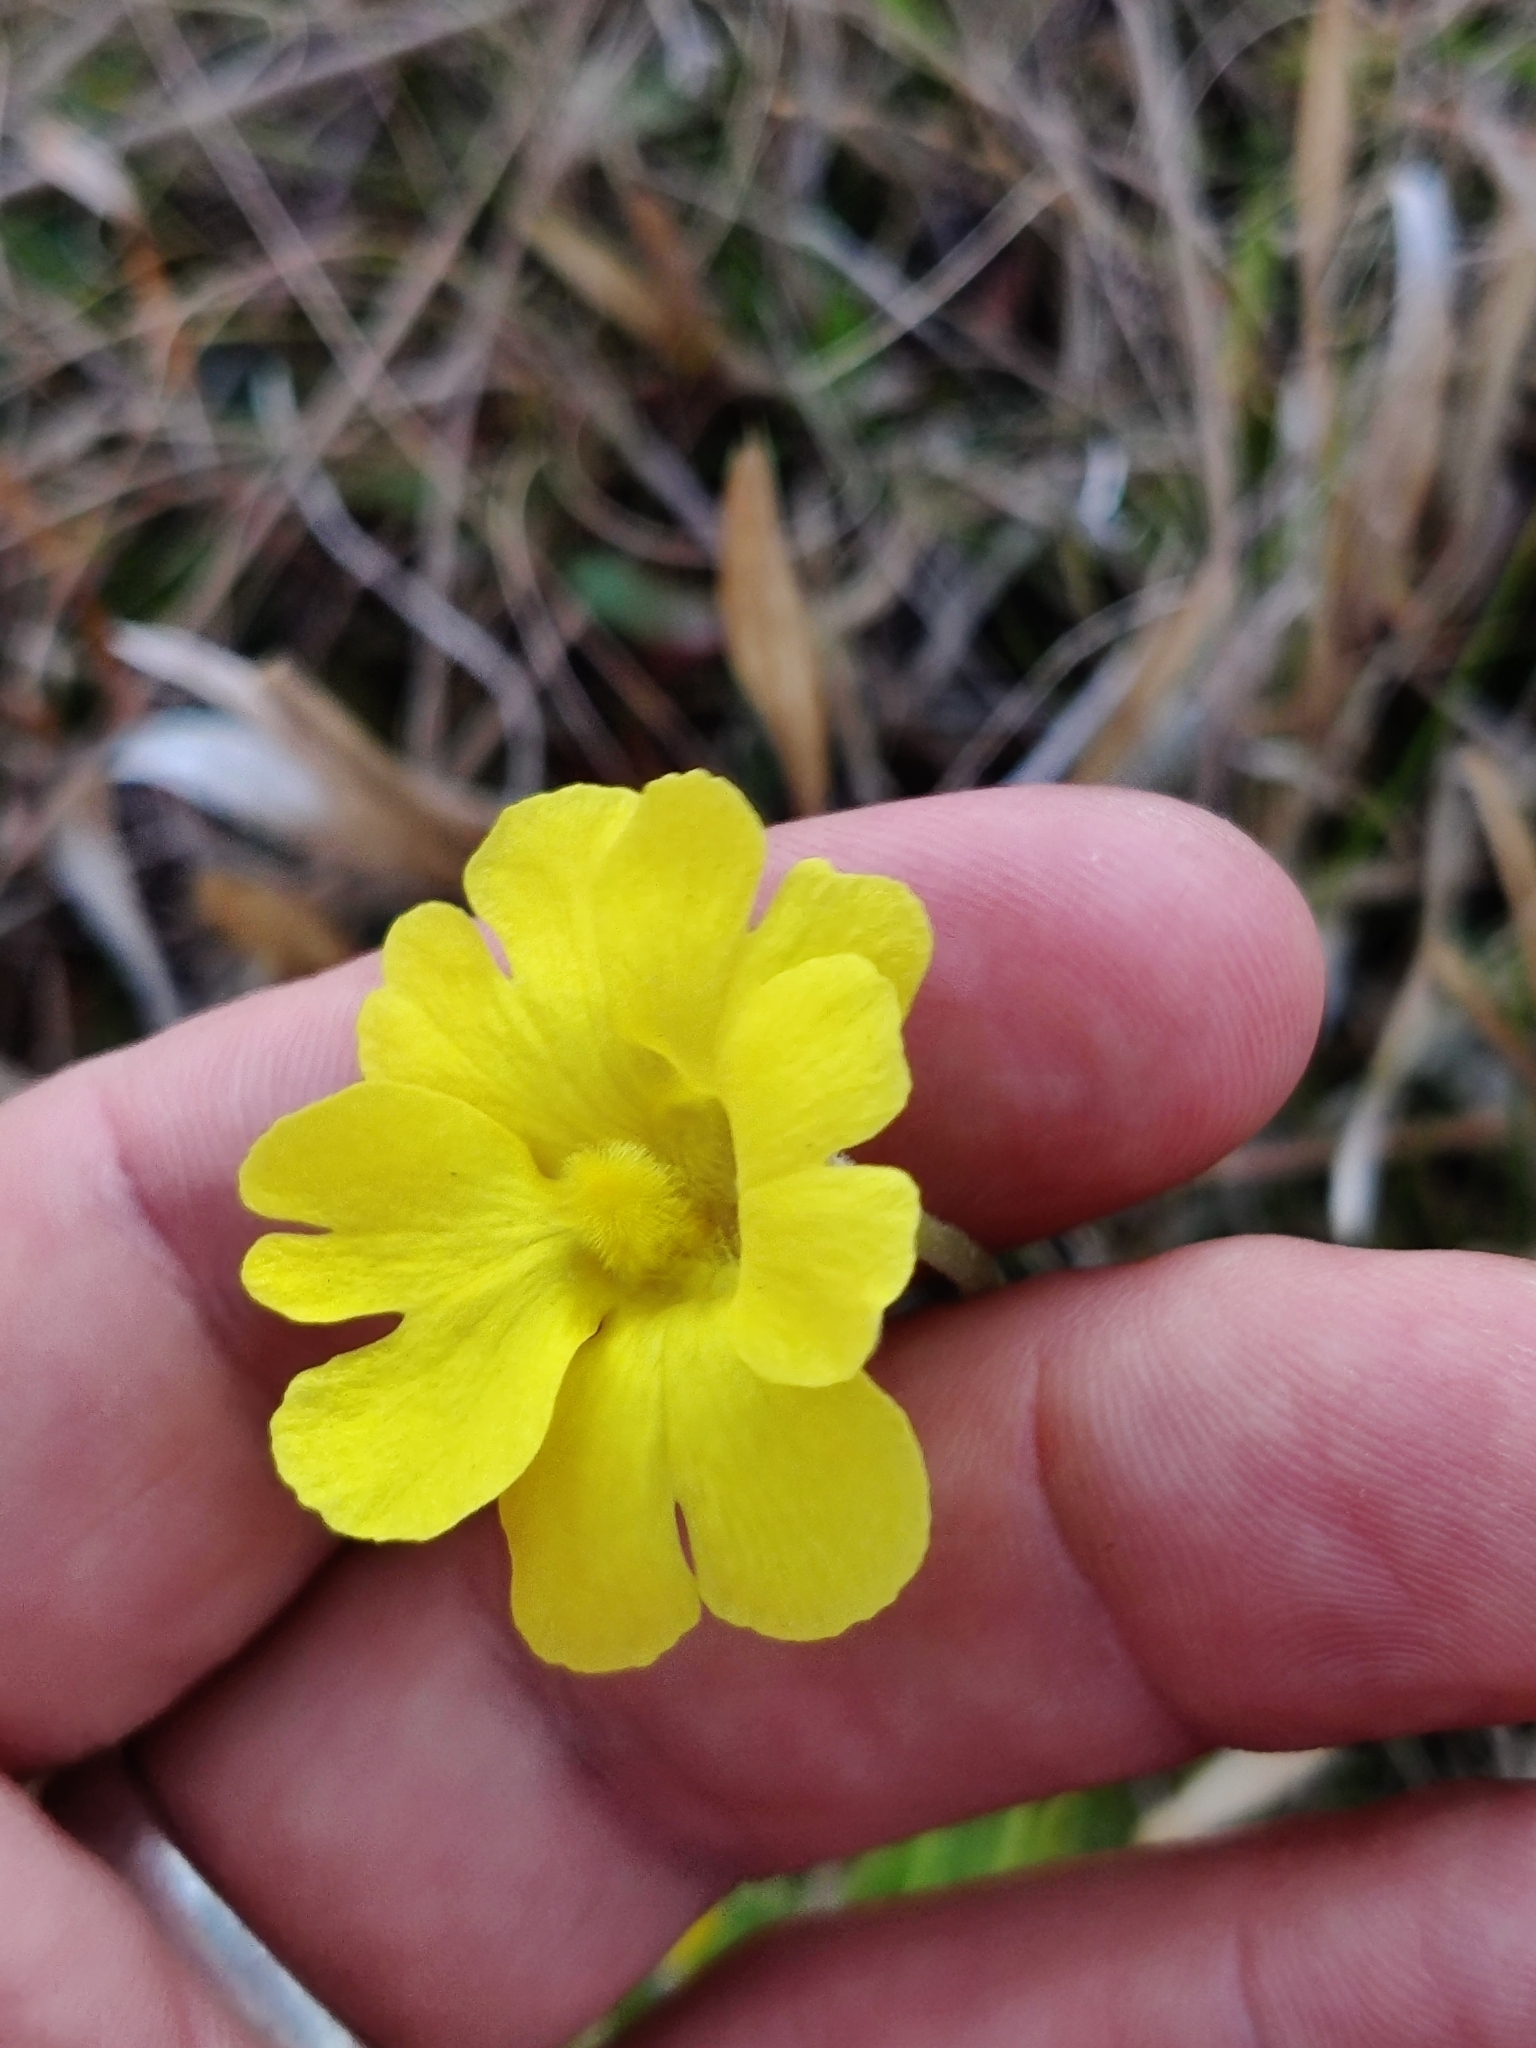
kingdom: Plantae
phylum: Tracheophyta
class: Magnoliopsida
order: Lamiales
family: Lentibulariaceae
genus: Pinguicula
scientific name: Pinguicula lutea
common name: Yellow butterwort
